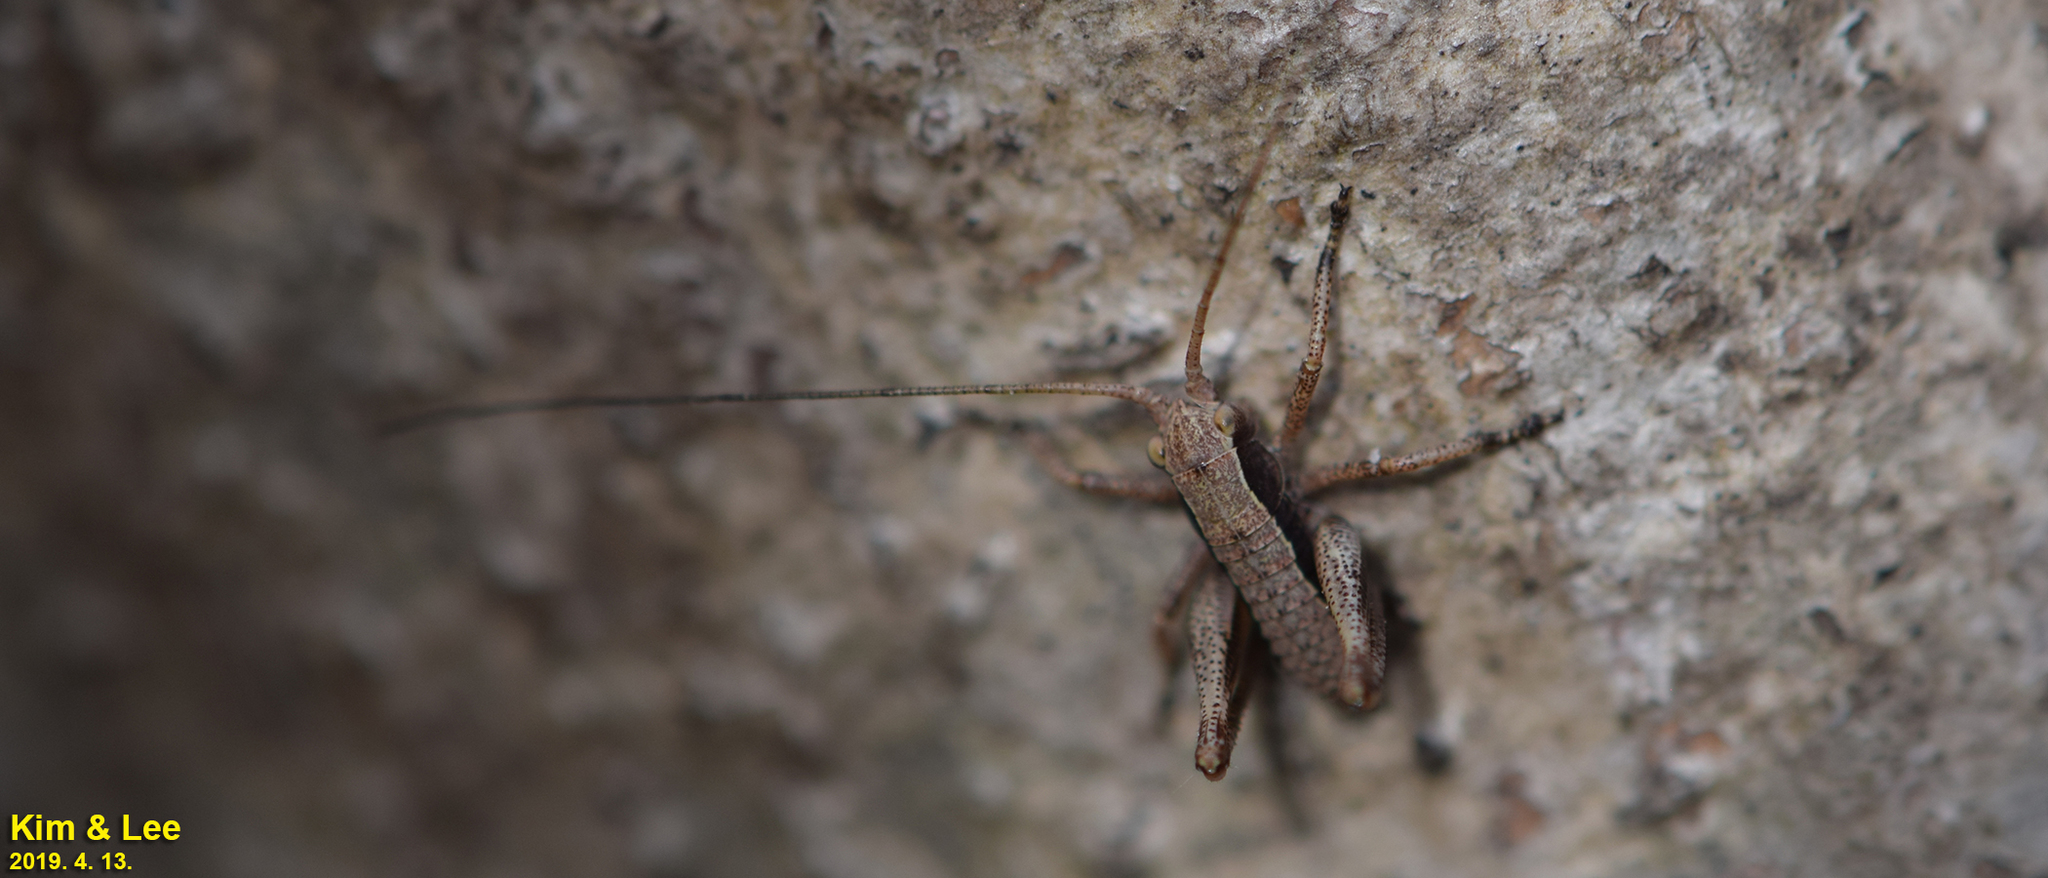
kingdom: Animalia
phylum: Arthropoda
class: Insecta
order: Orthoptera
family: Tettigoniidae
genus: Paratlanticus
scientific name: Paratlanticus ussuriensis
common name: Ussur brown katydid
